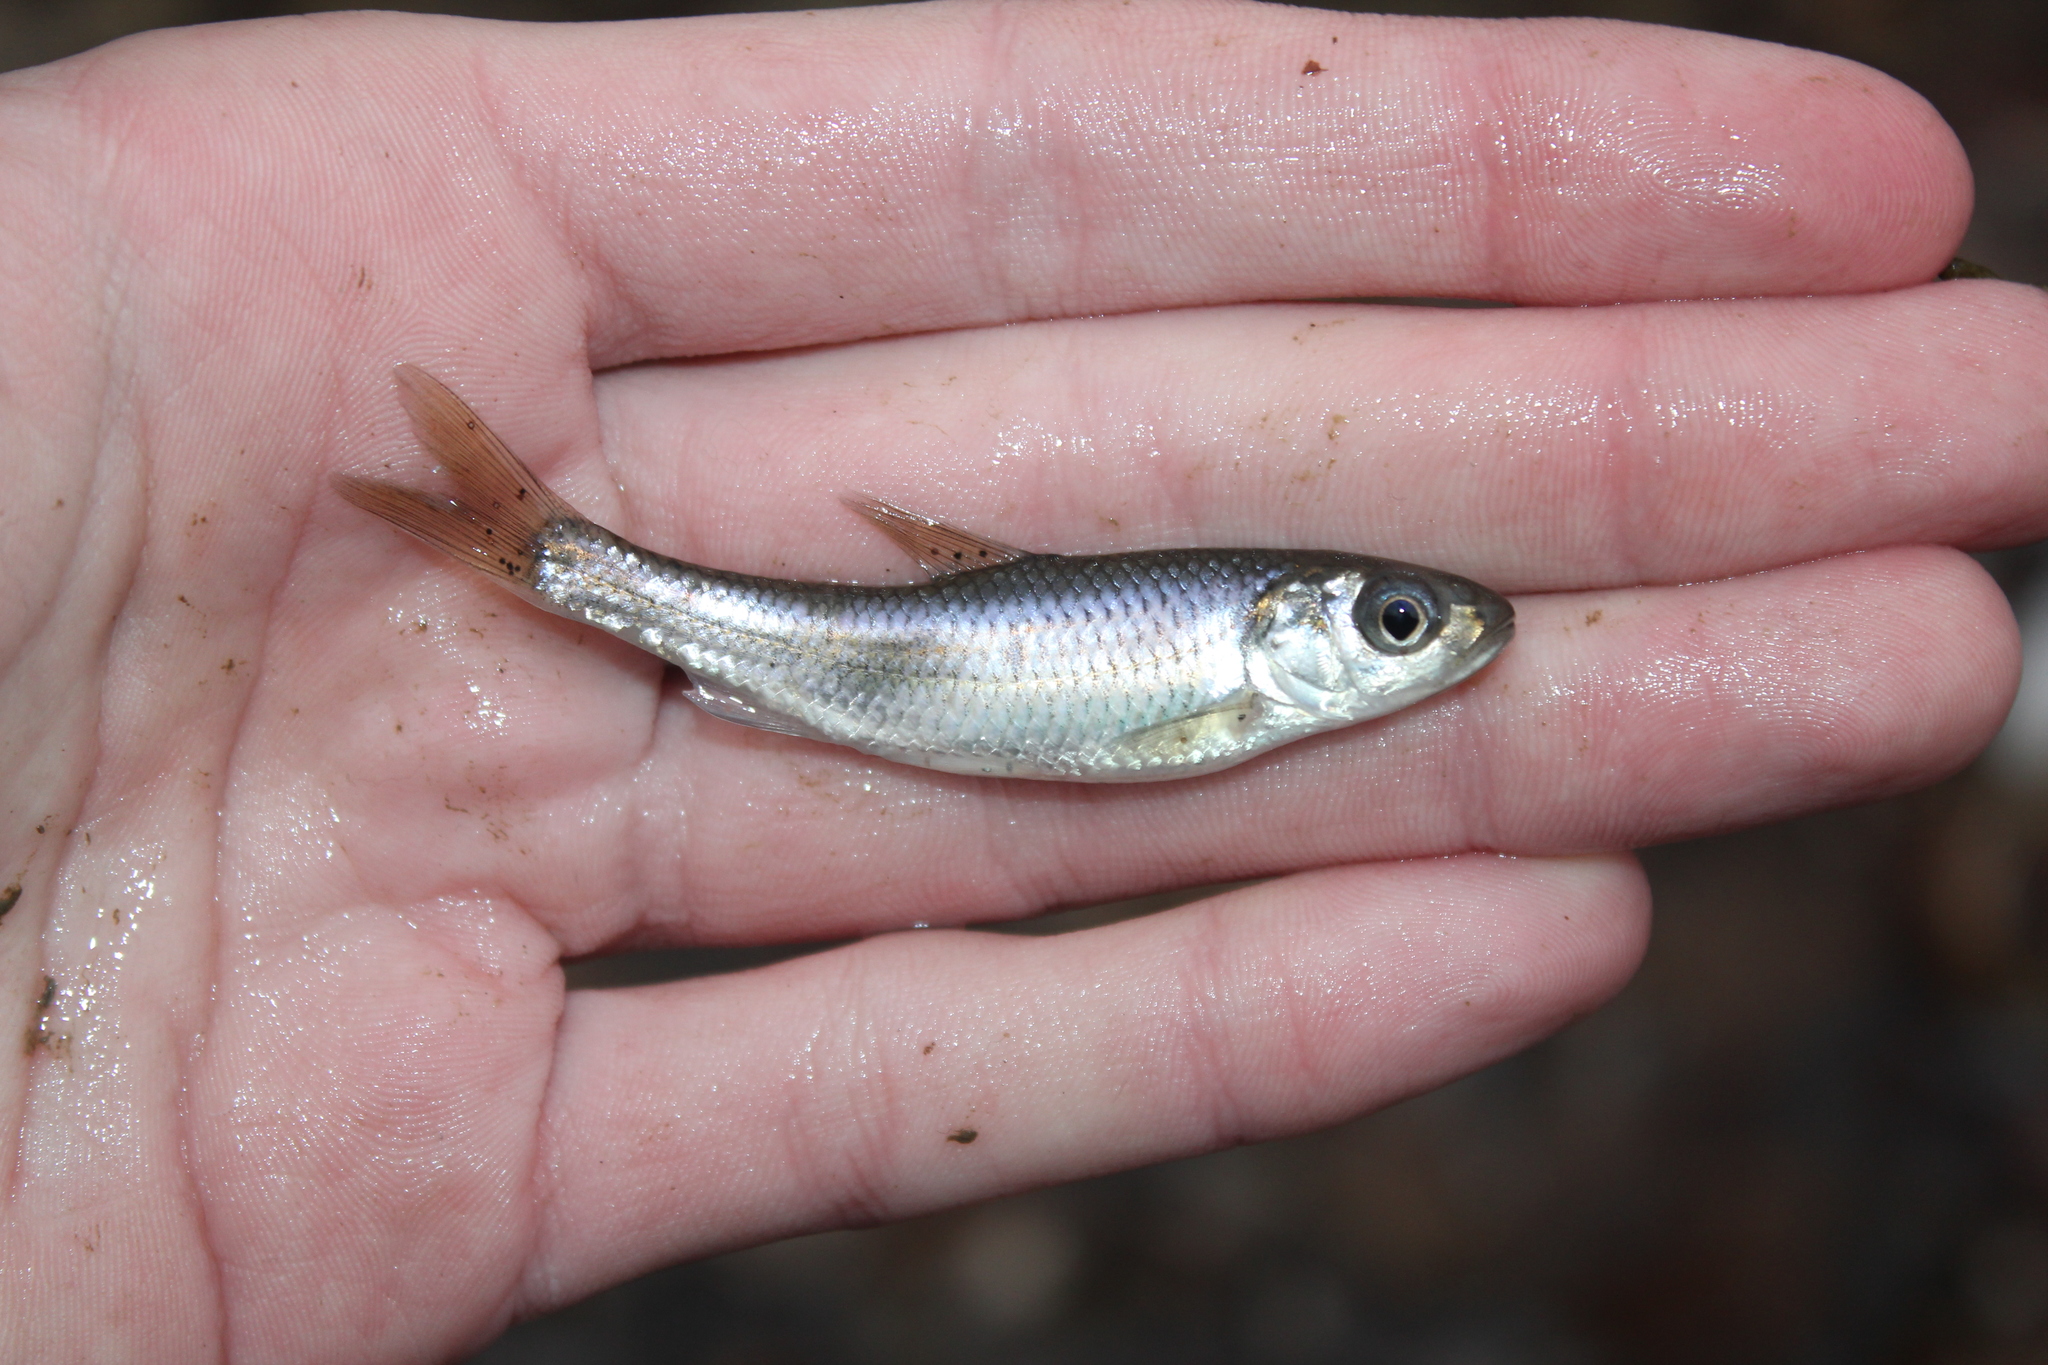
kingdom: Animalia
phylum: Chordata
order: Cypriniformes
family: Cyprinidae
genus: Luxilus
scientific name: Luxilus chrysocephalus
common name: Striped shiner
